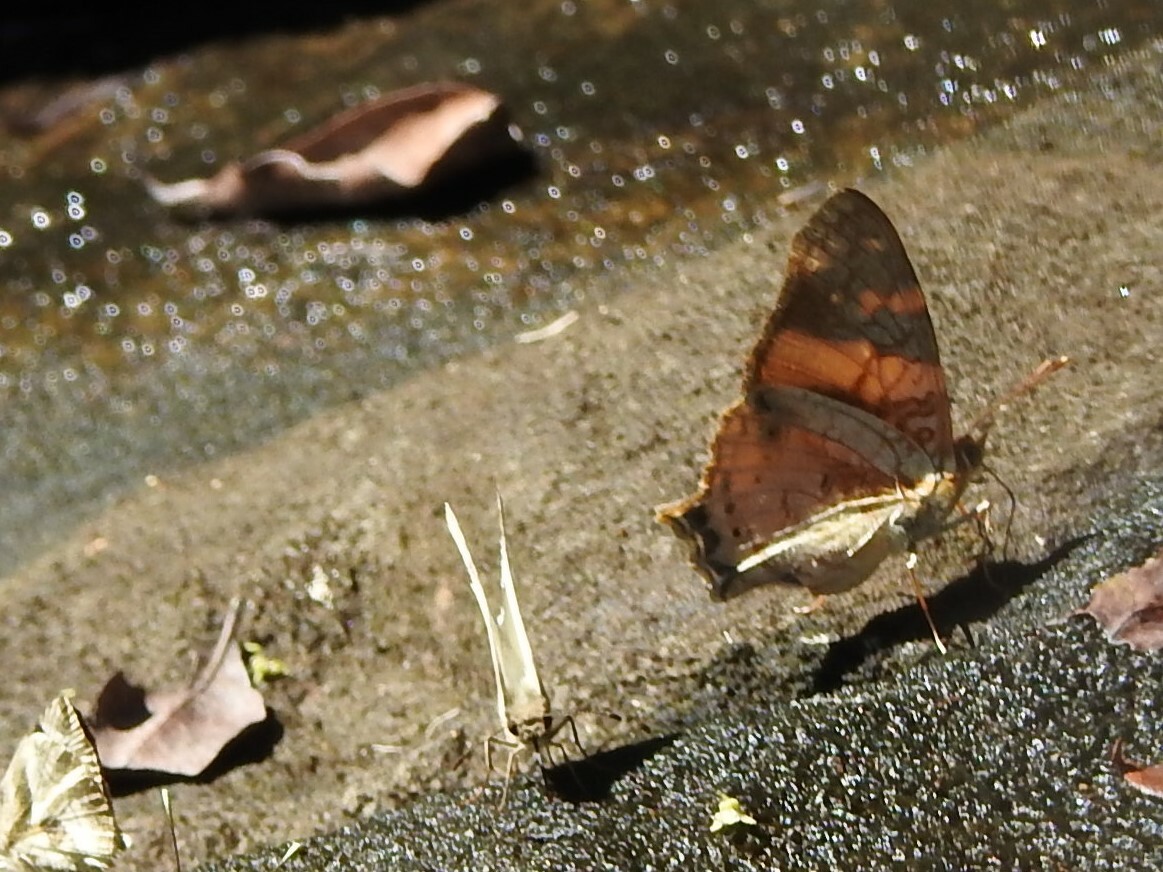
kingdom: Animalia
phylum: Arthropoda
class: Insecta
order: Lepidoptera
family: Nymphalidae
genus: Hypanartia
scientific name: Hypanartia lethe
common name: Orange mapwing
